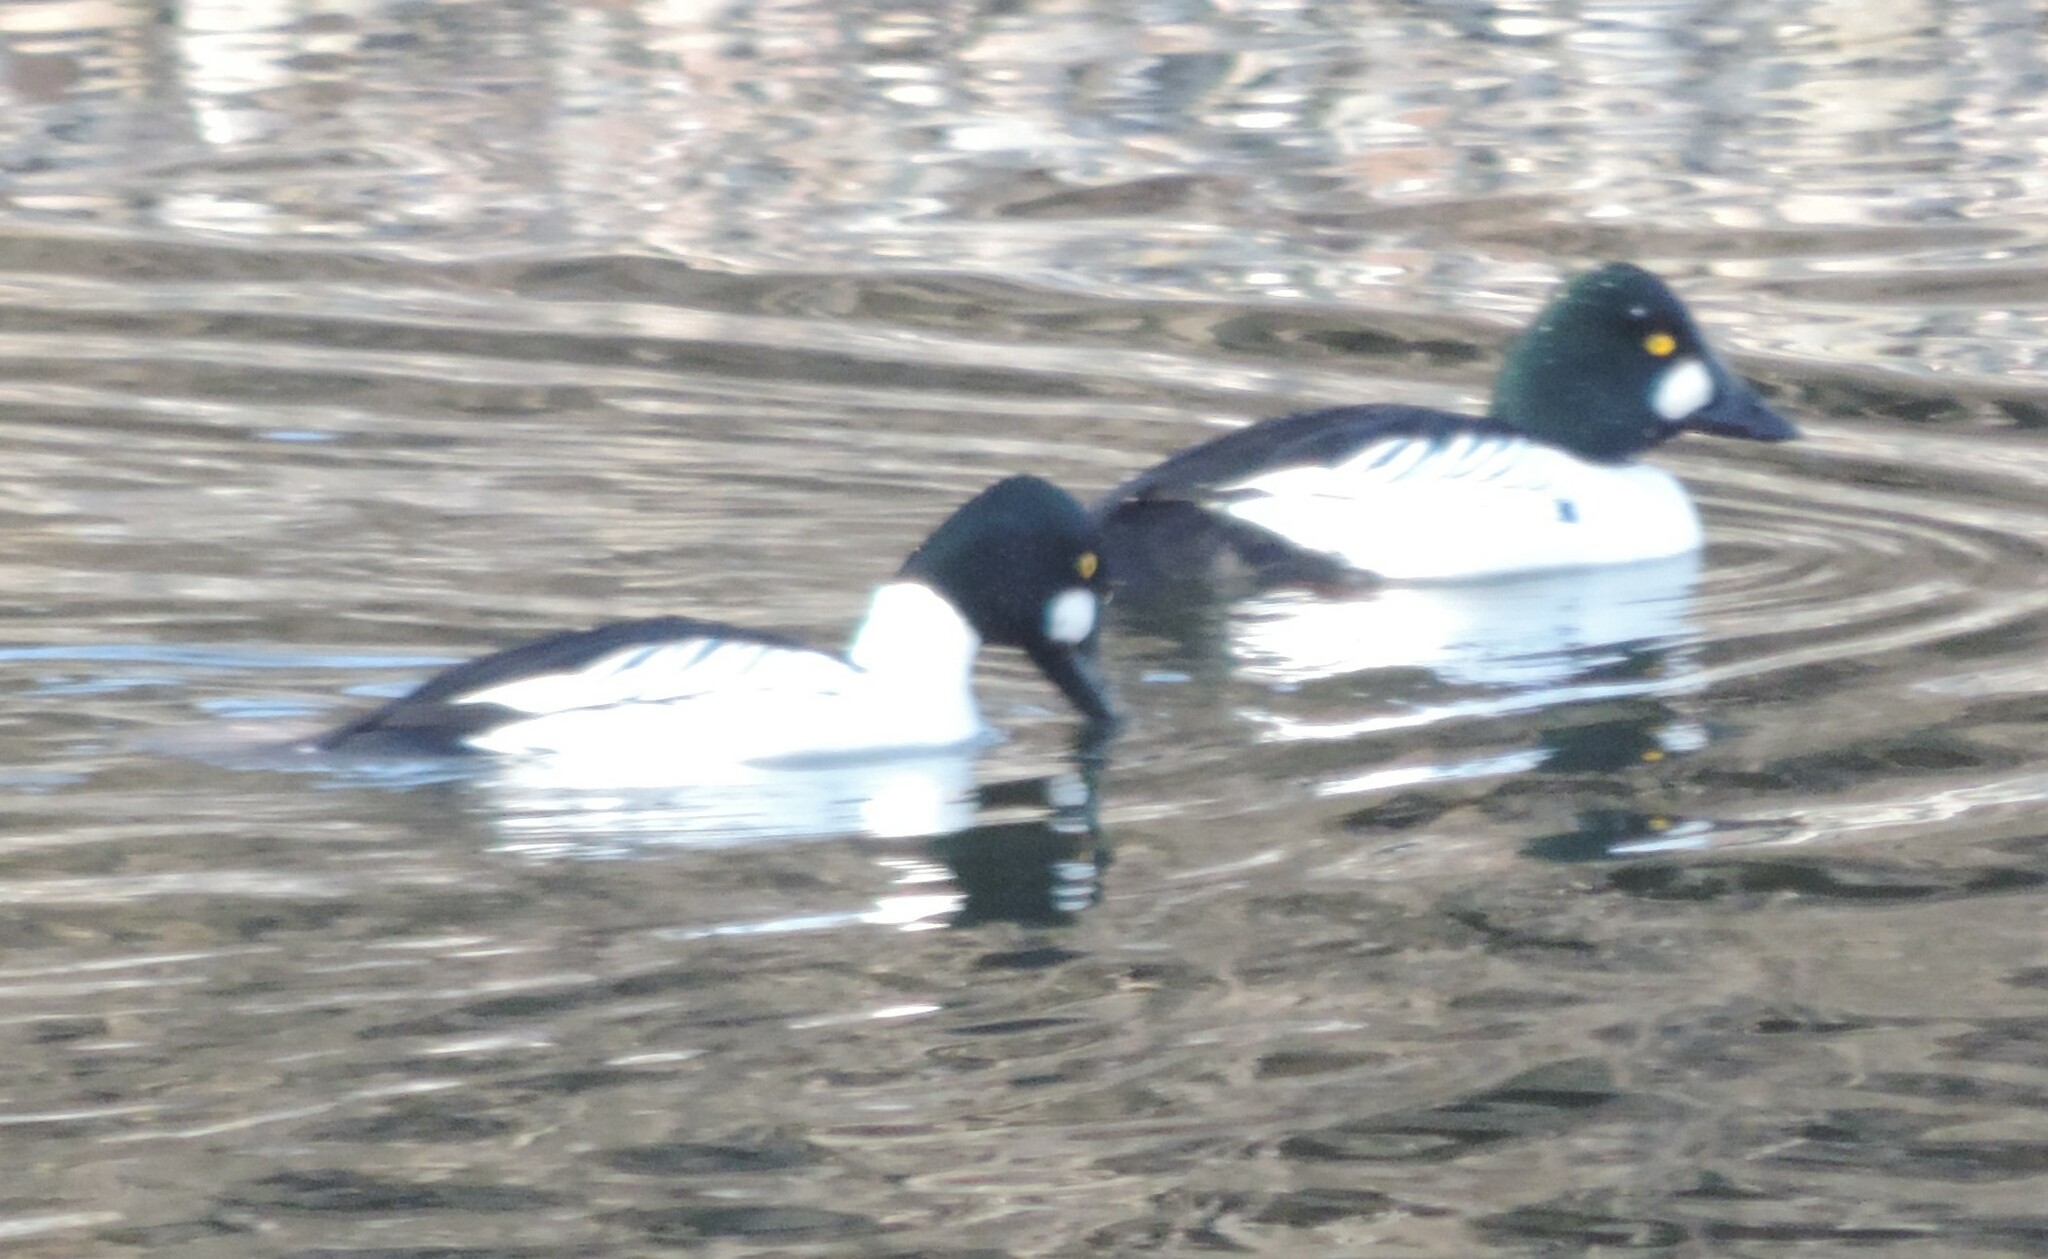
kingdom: Animalia
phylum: Chordata
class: Aves
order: Anseriformes
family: Anatidae
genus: Bucephala
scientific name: Bucephala clangula
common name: Common goldeneye
